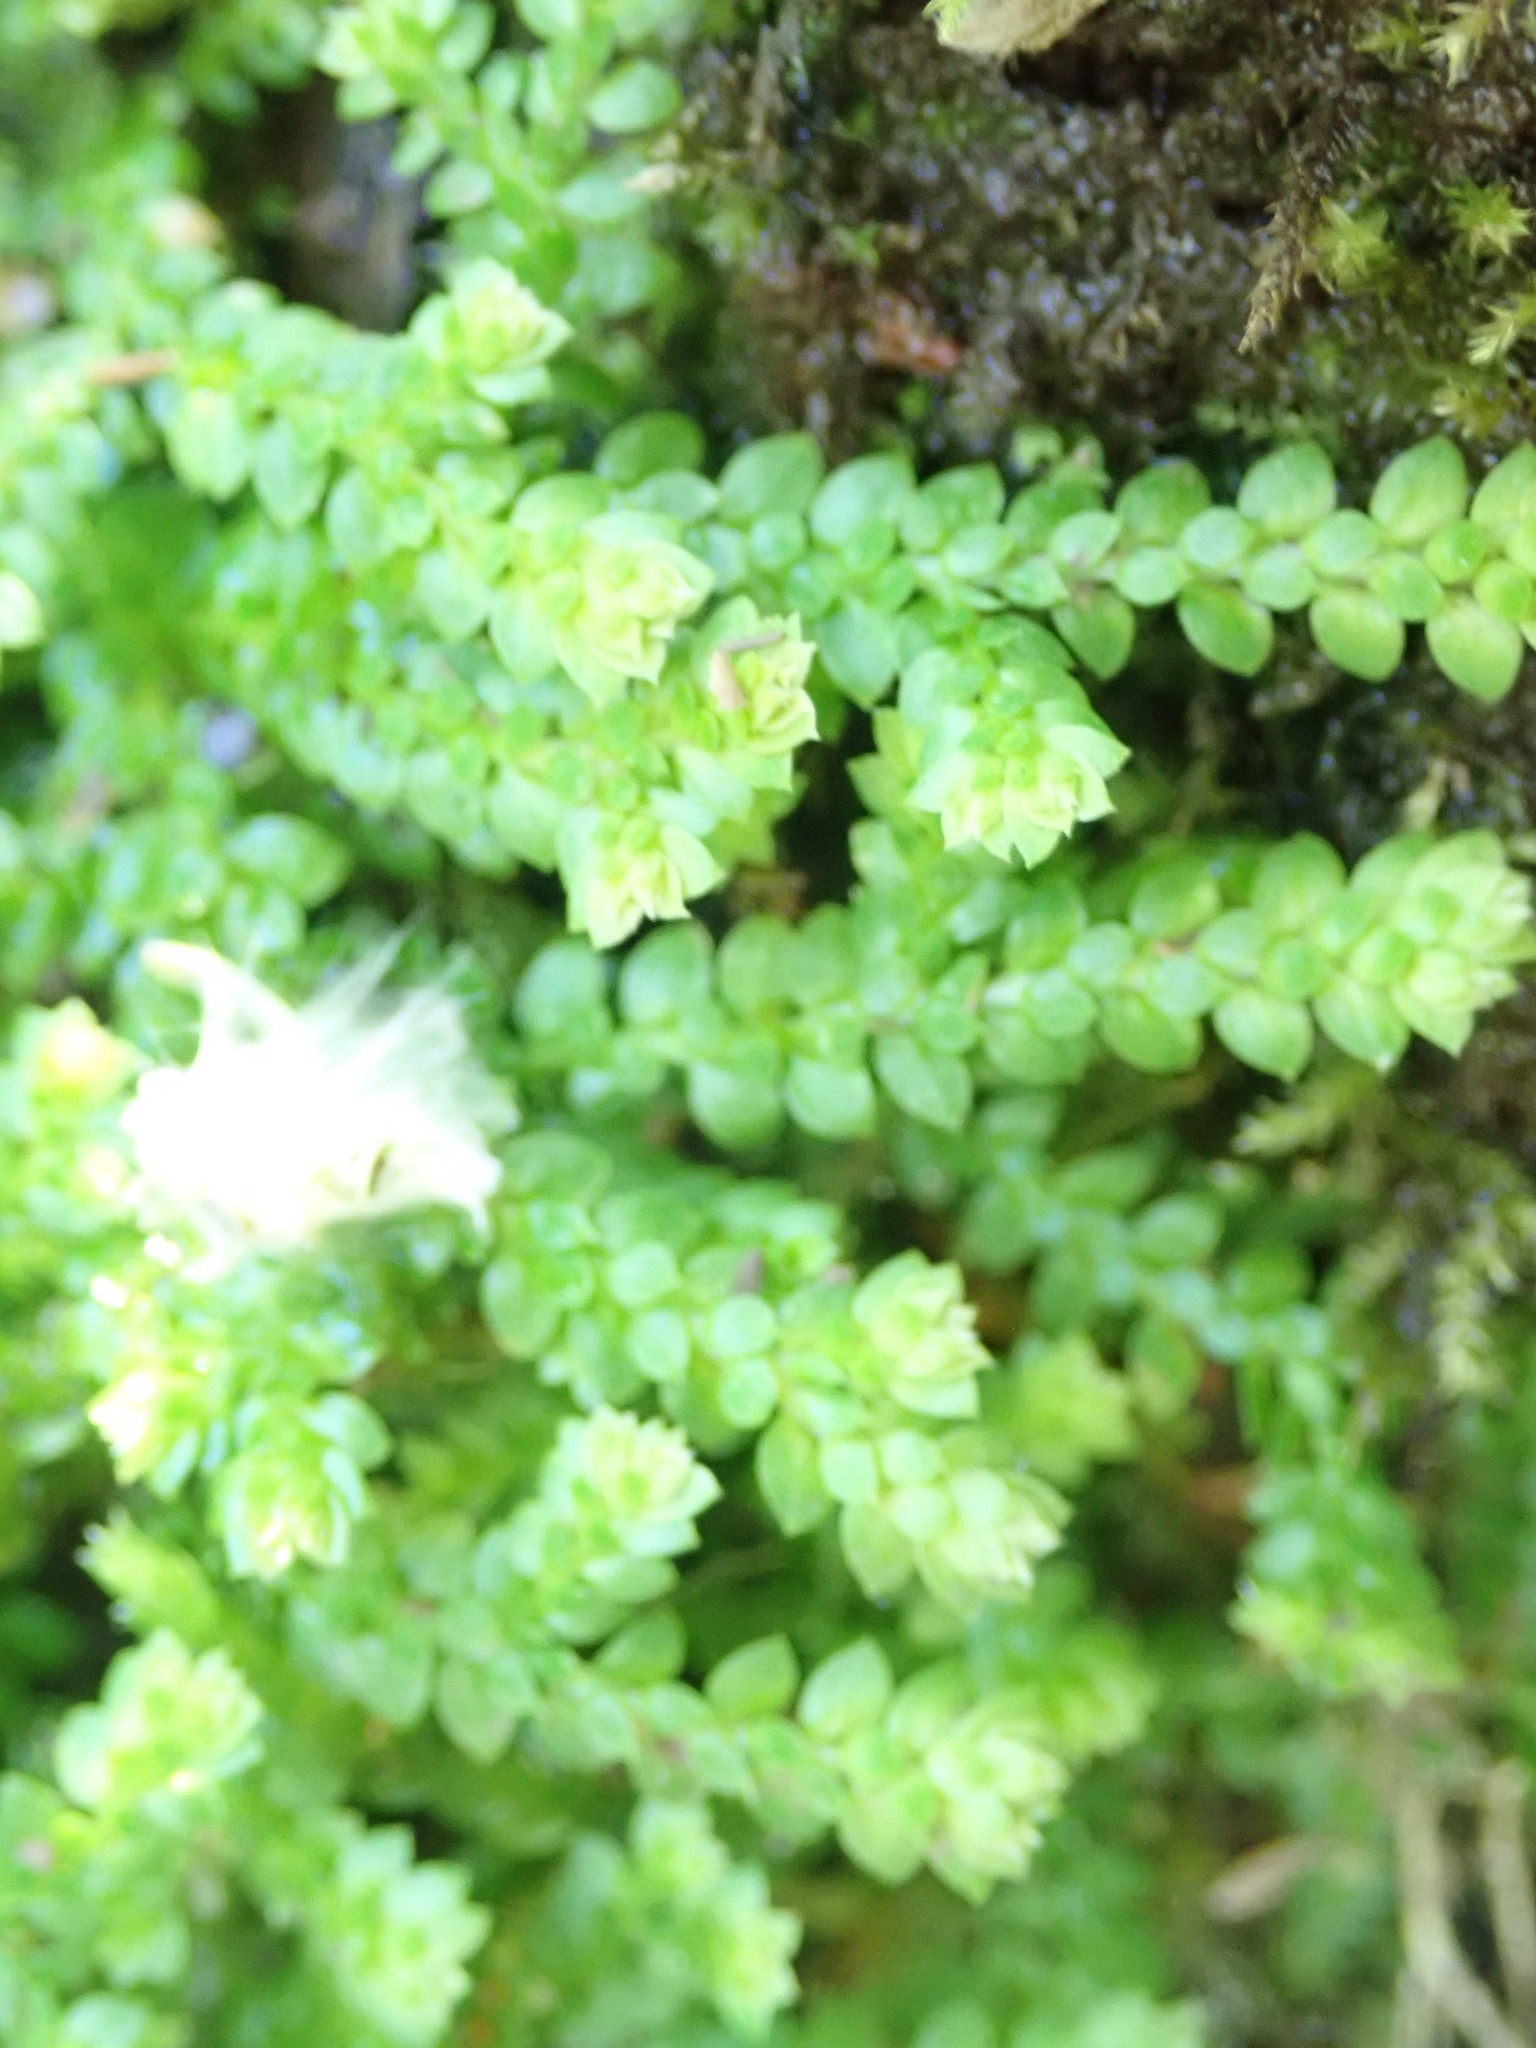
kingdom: Plantae
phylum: Tracheophyta
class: Lycopodiopsida
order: Selaginellales
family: Selaginellaceae
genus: Selaginella
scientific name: Selaginella denticulata
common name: Toothed-leaved clubmoss
